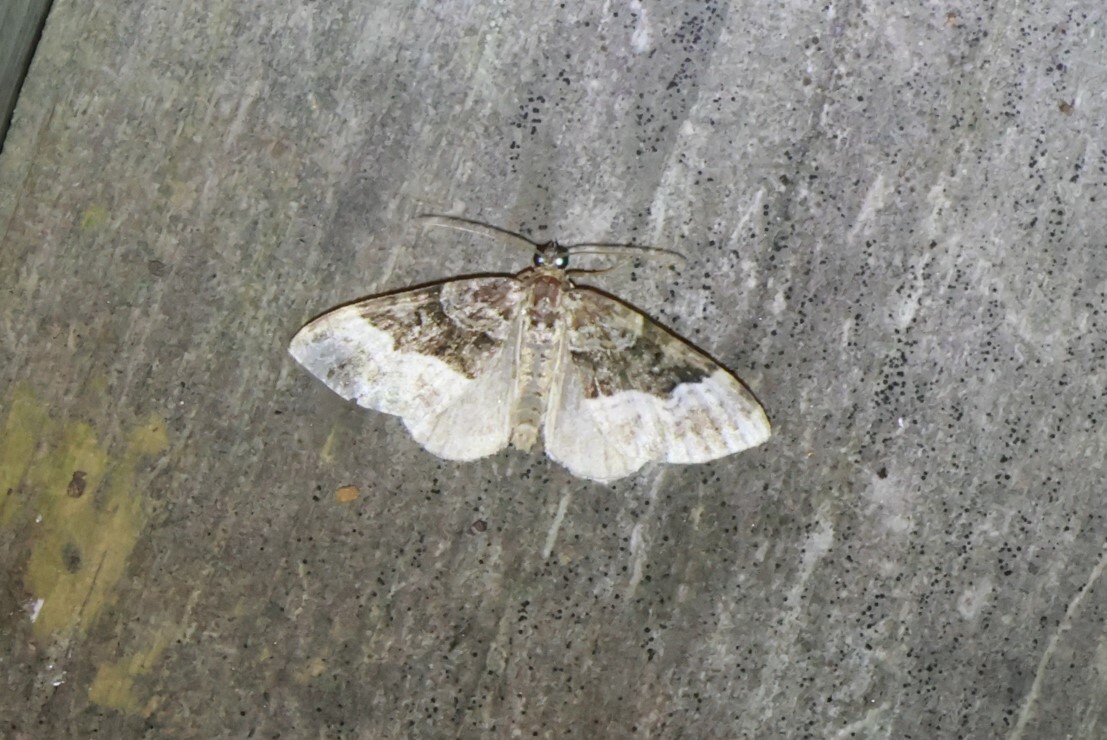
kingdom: Animalia
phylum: Arthropoda
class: Insecta
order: Lepidoptera
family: Geometridae
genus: Euphyia
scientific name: Euphyia intermediata
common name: Sharp-angled carpet
